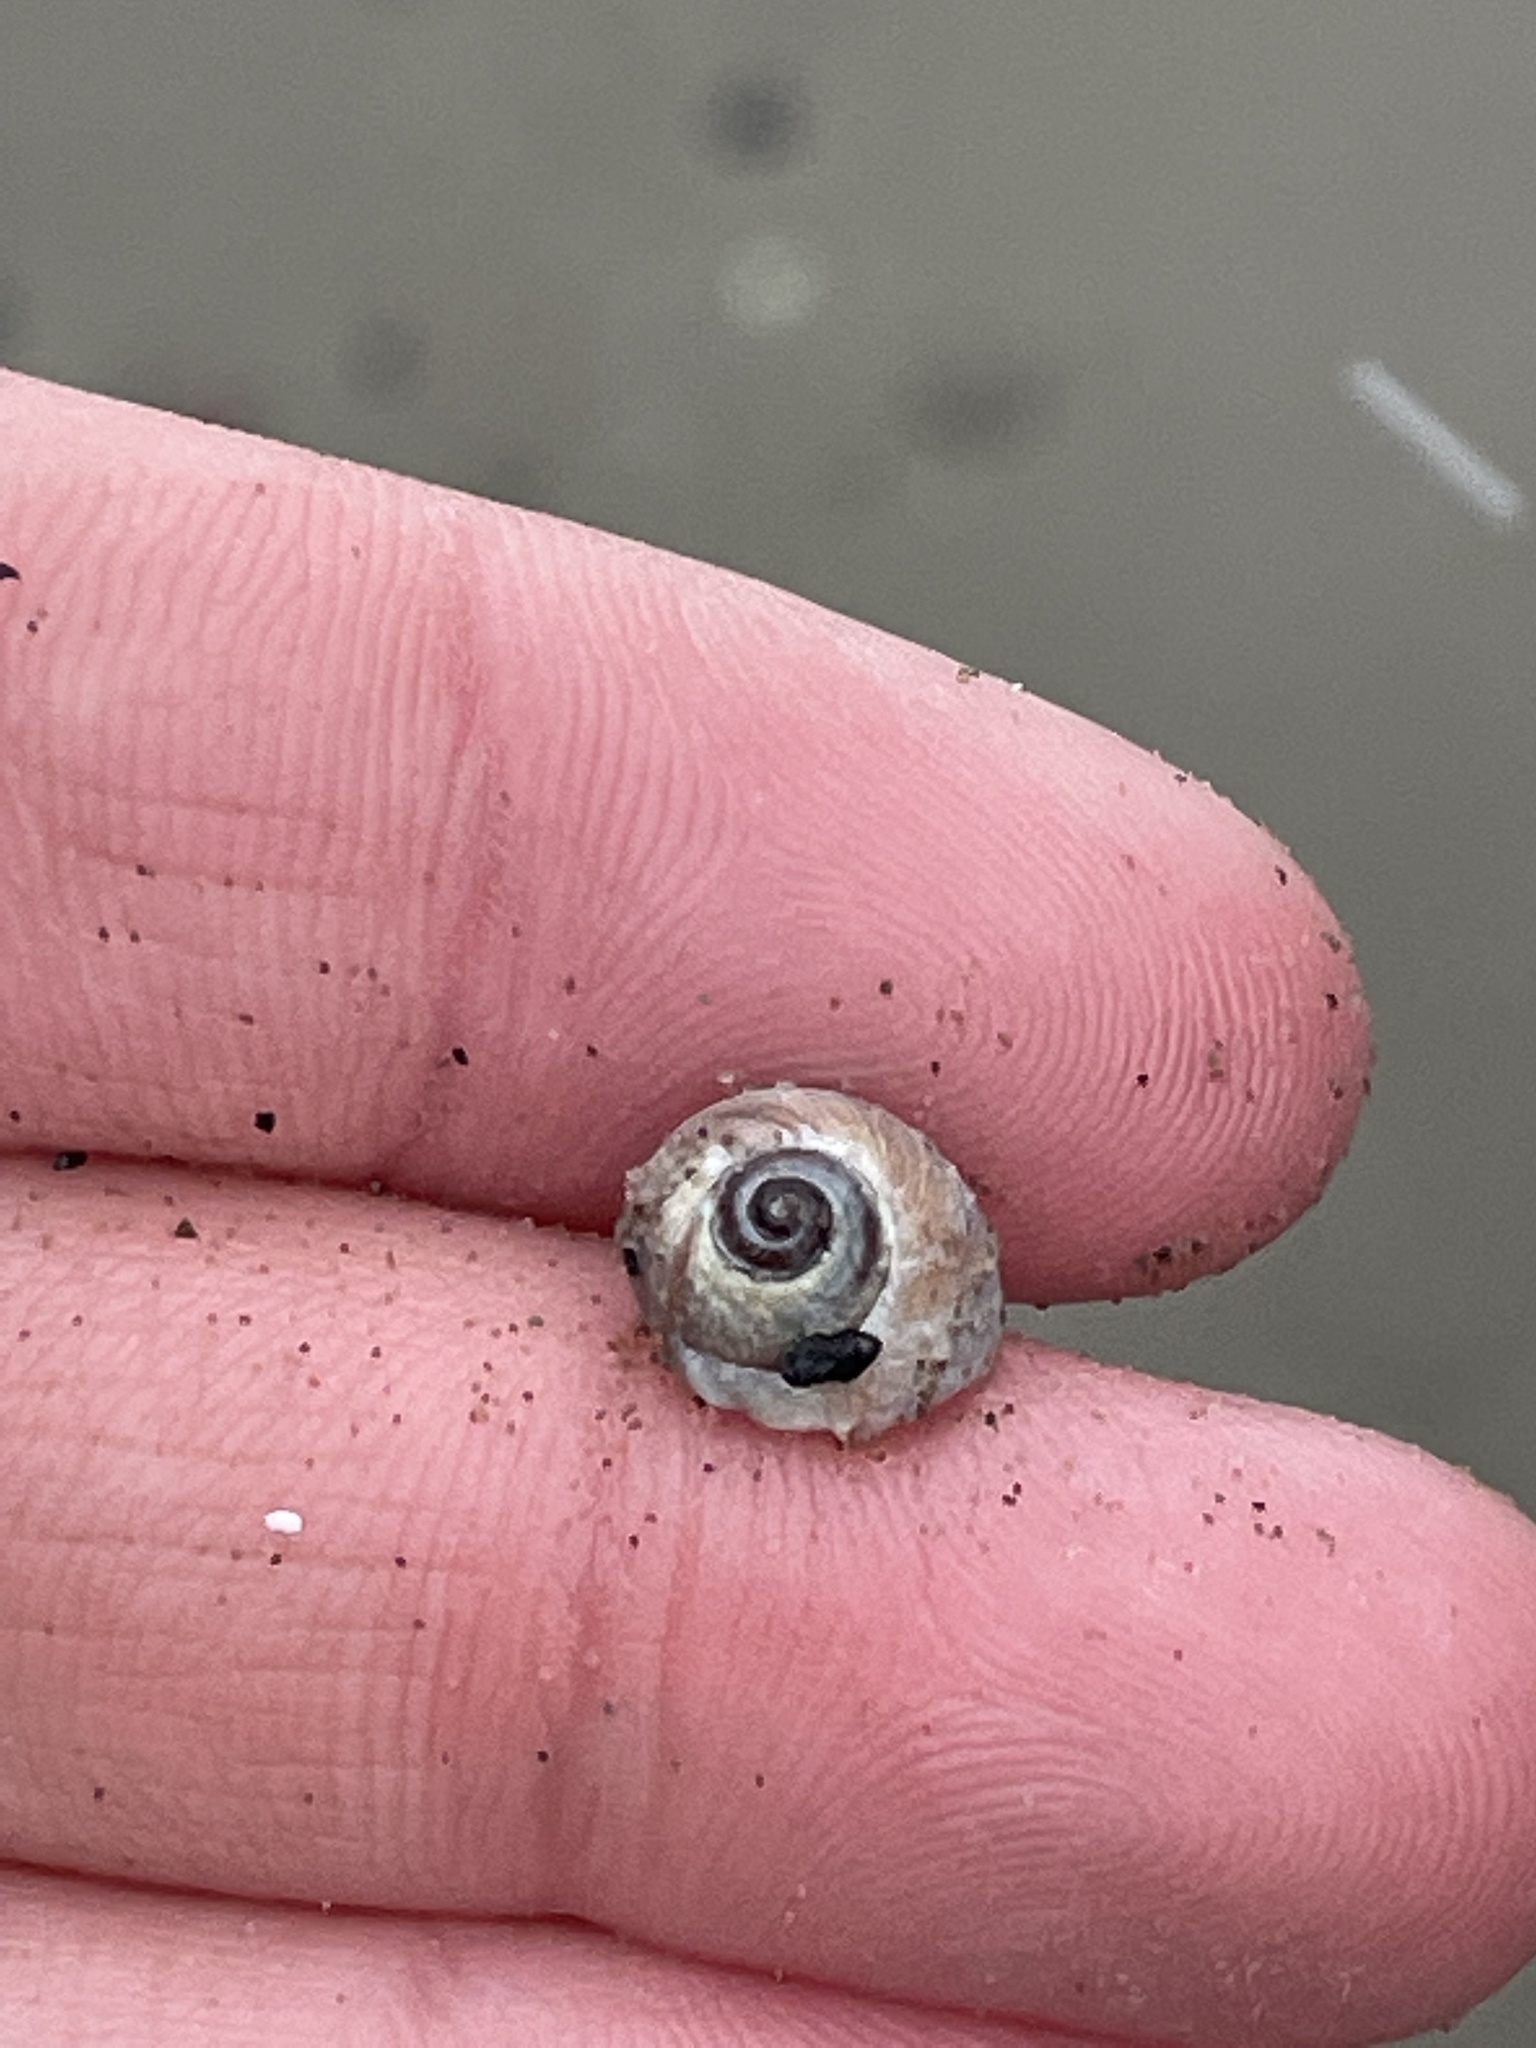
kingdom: Animalia
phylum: Mollusca
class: Gastropoda
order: Littorinimorpha
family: Naticidae
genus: Euspira
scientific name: Euspira heros
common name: Common northern moonsnail
